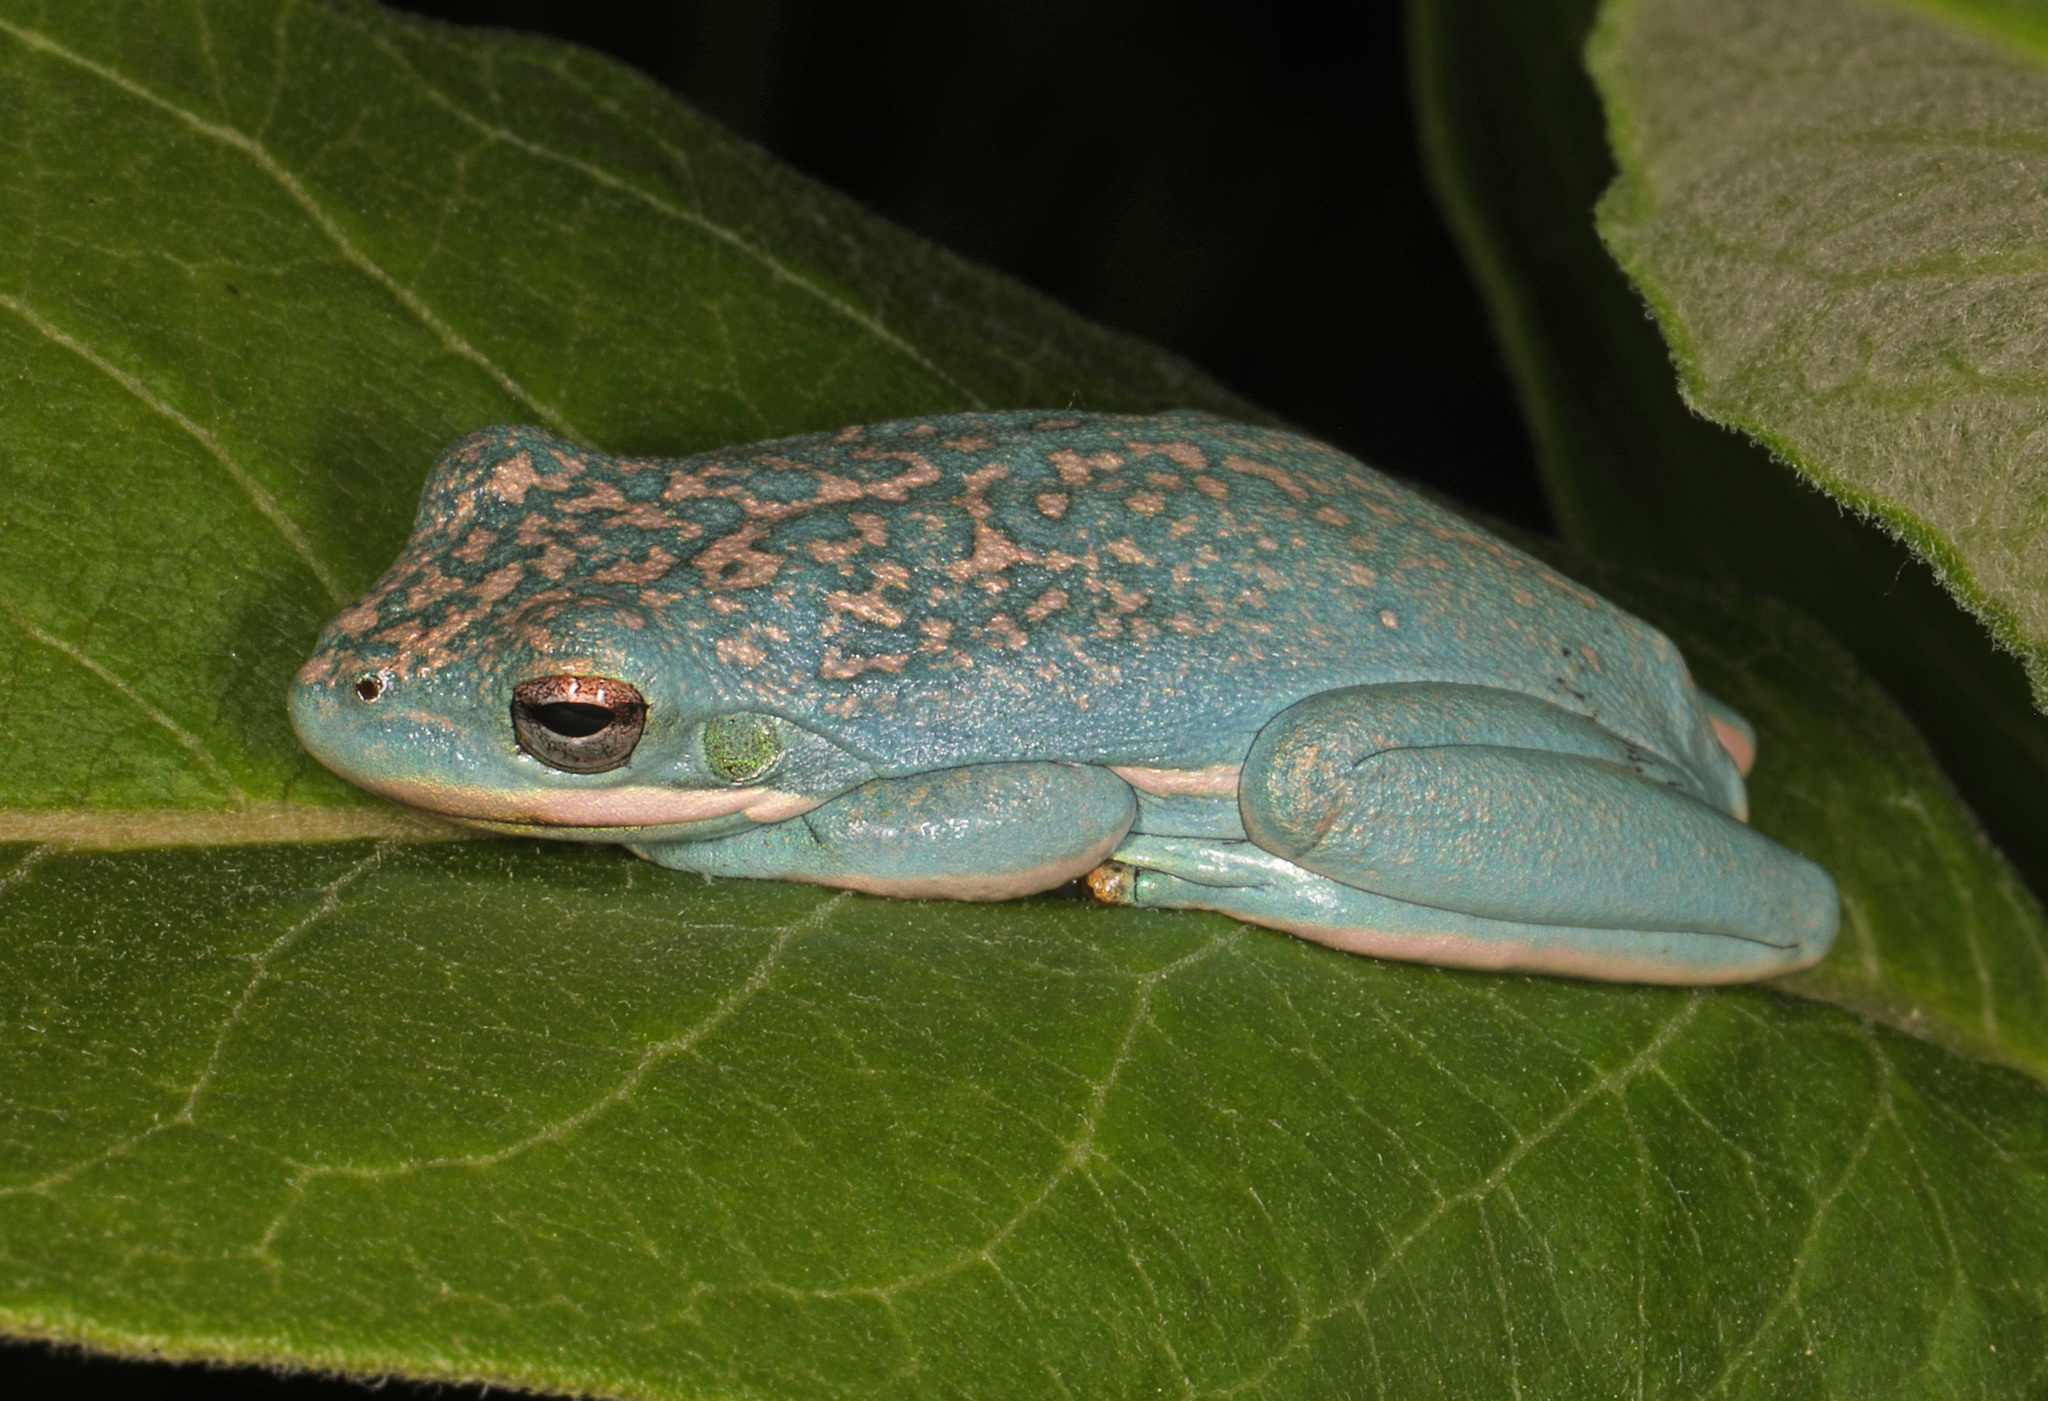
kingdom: Animalia
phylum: Chordata
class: Amphibia
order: Anura
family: Hylidae
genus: Dryophytes
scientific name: Dryophytes cinereus
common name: Green treefrog
